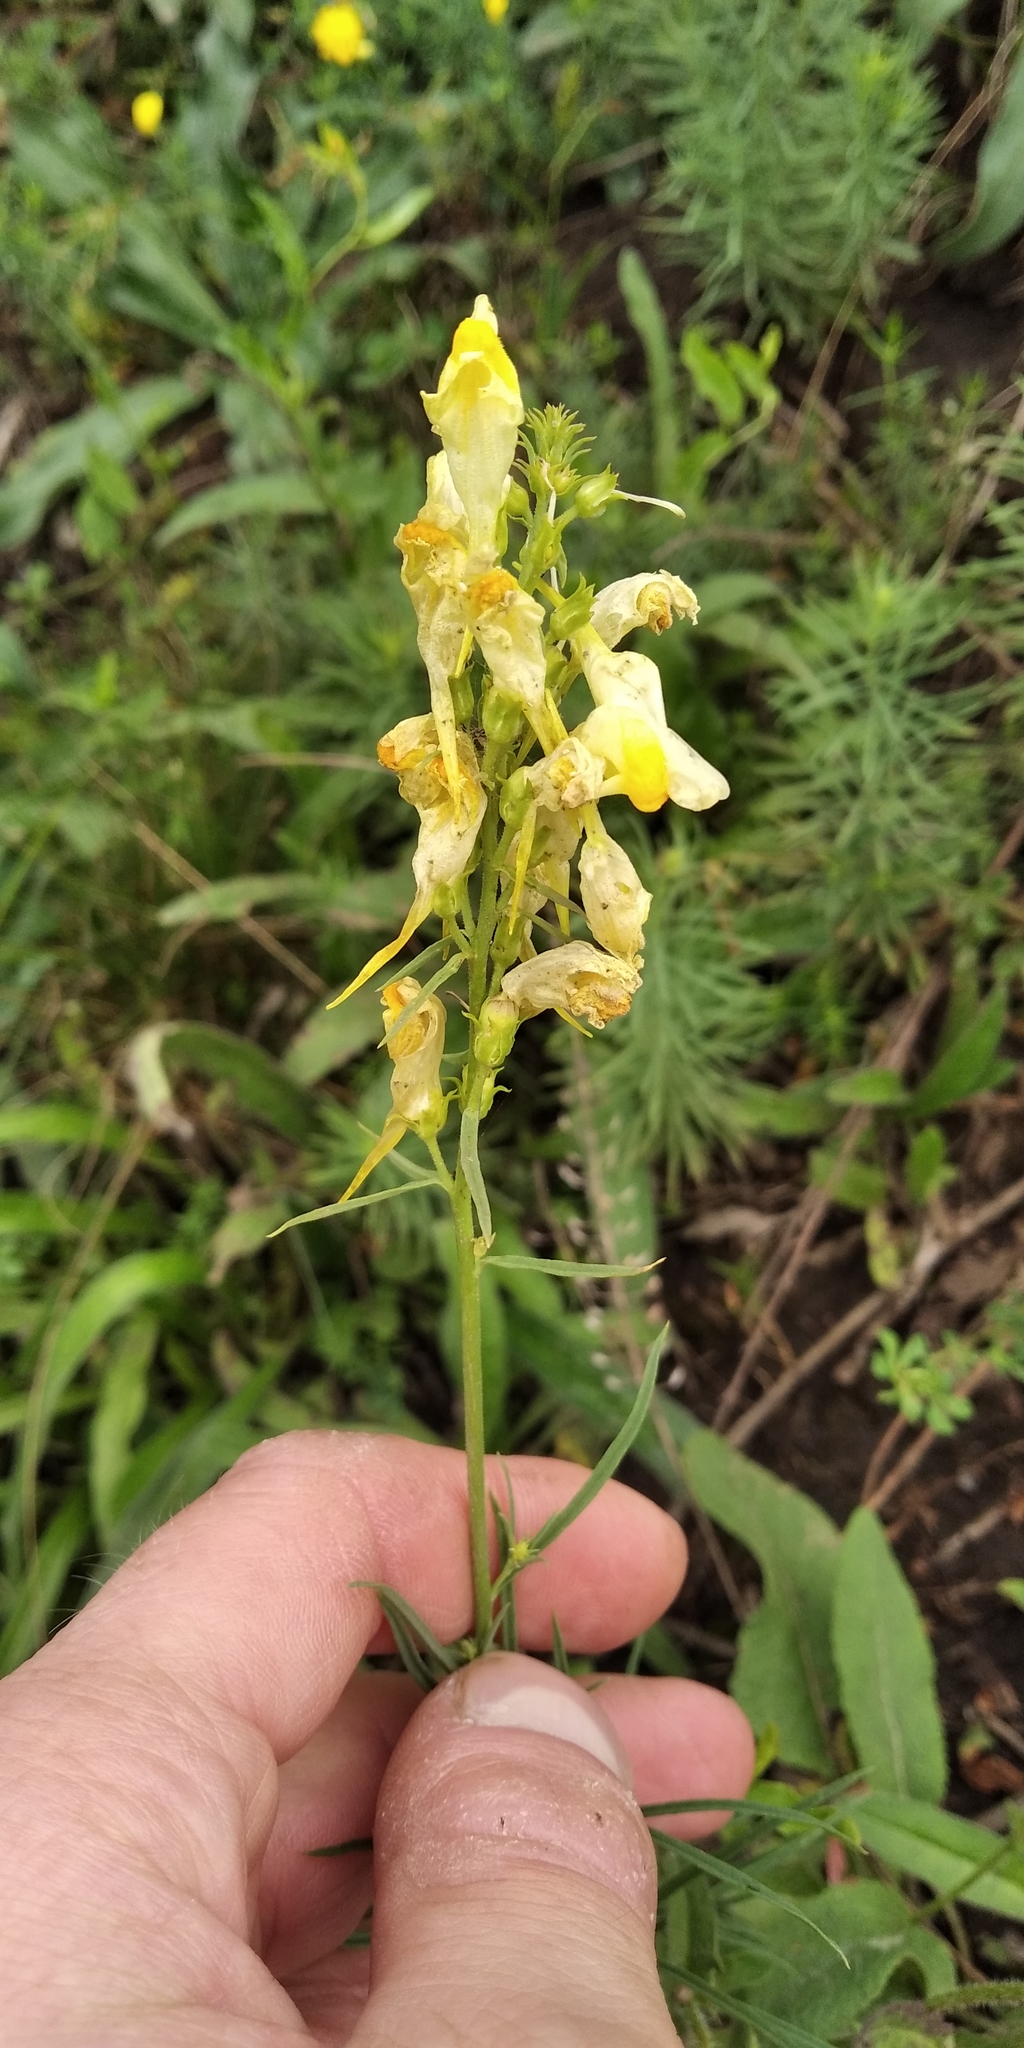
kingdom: Plantae
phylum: Tracheophyta
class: Magnoliopsida
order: Lamiales
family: Plantaginaceae
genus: Linaria
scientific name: Linaria vulgaris
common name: Butter and eggs
